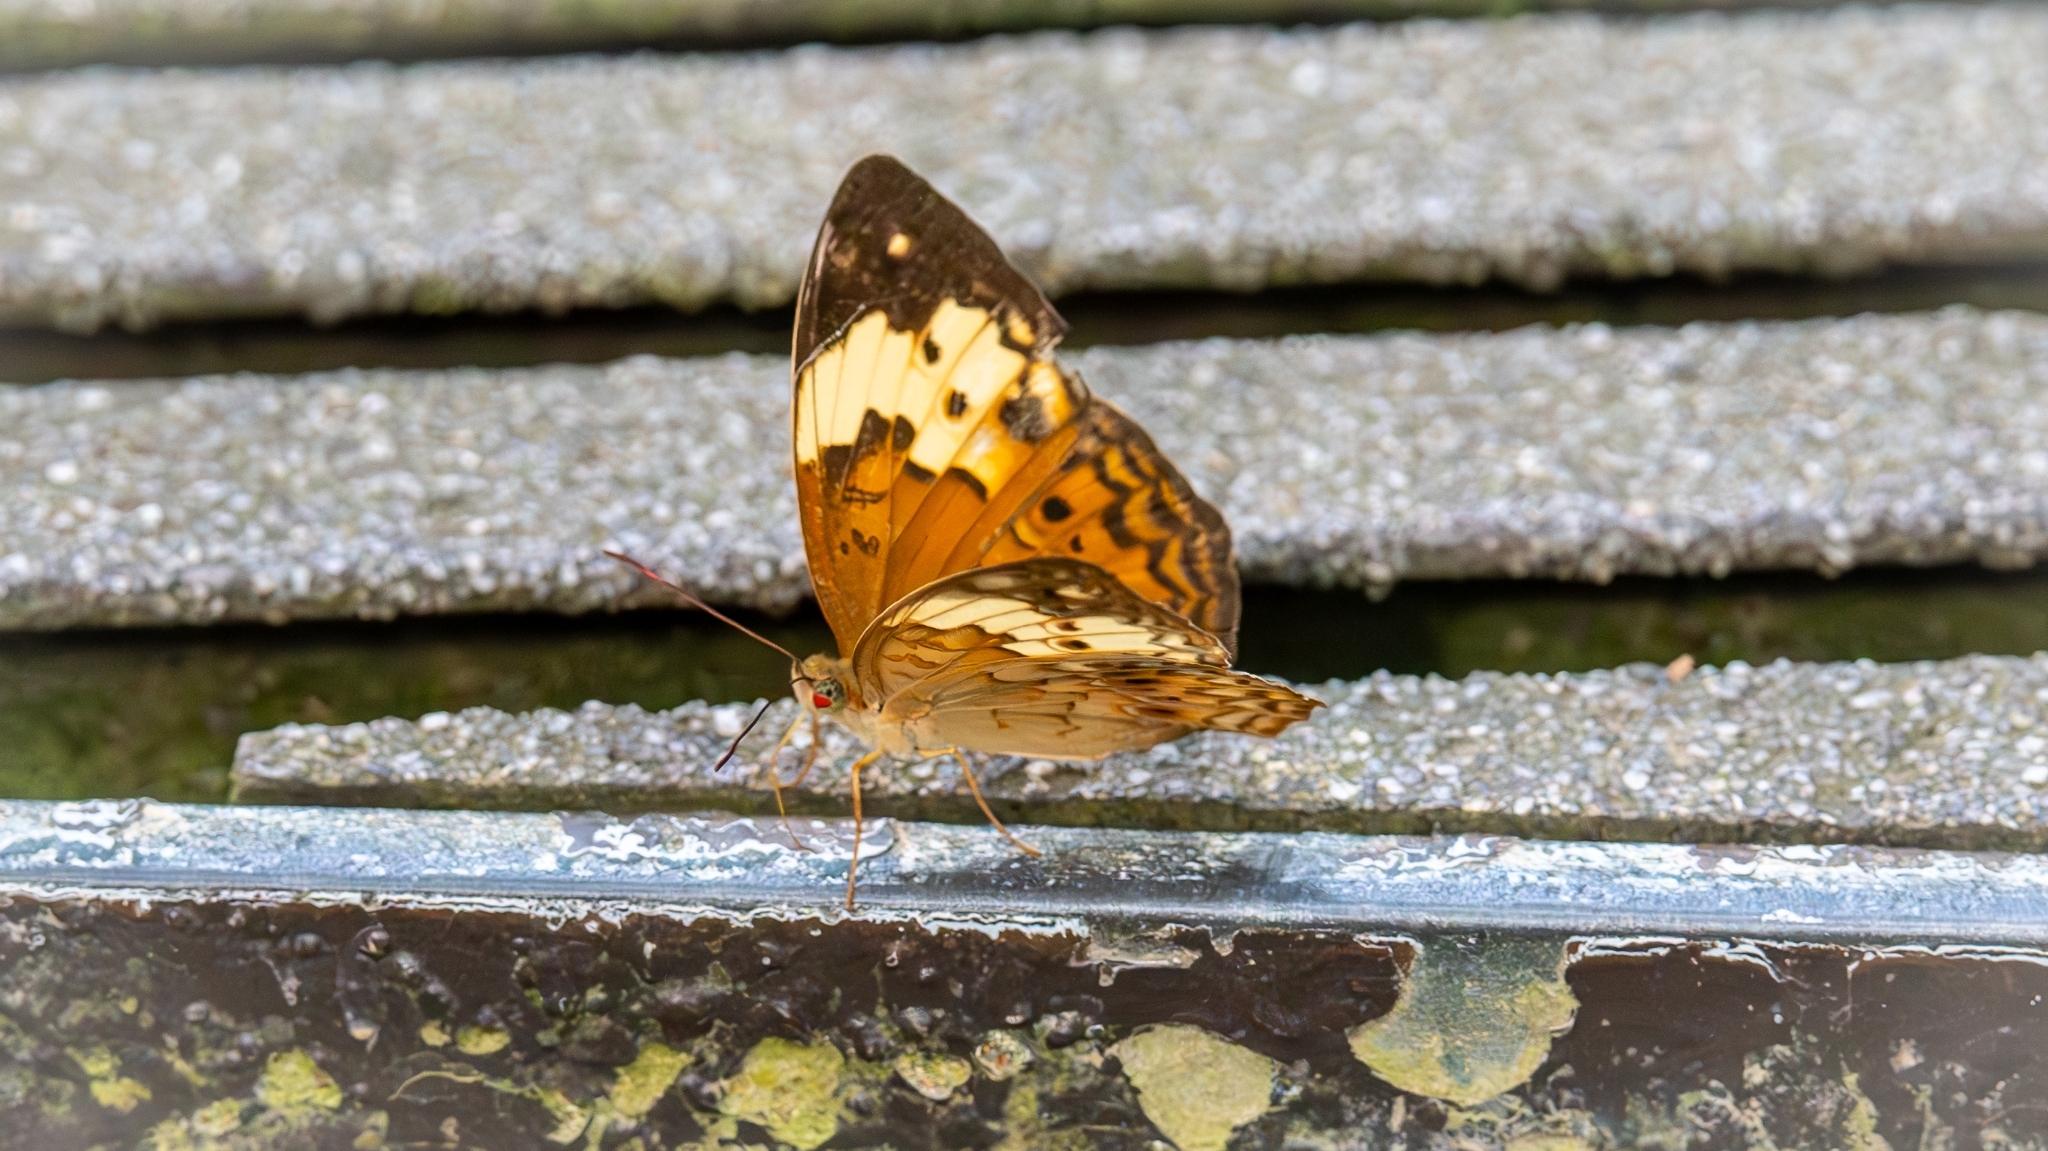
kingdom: Animalia
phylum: Arthropoda
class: Insecta
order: Lepidoptera
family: Nymphalidae
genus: Cupha
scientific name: Cupha erymanthis
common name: Rustic
